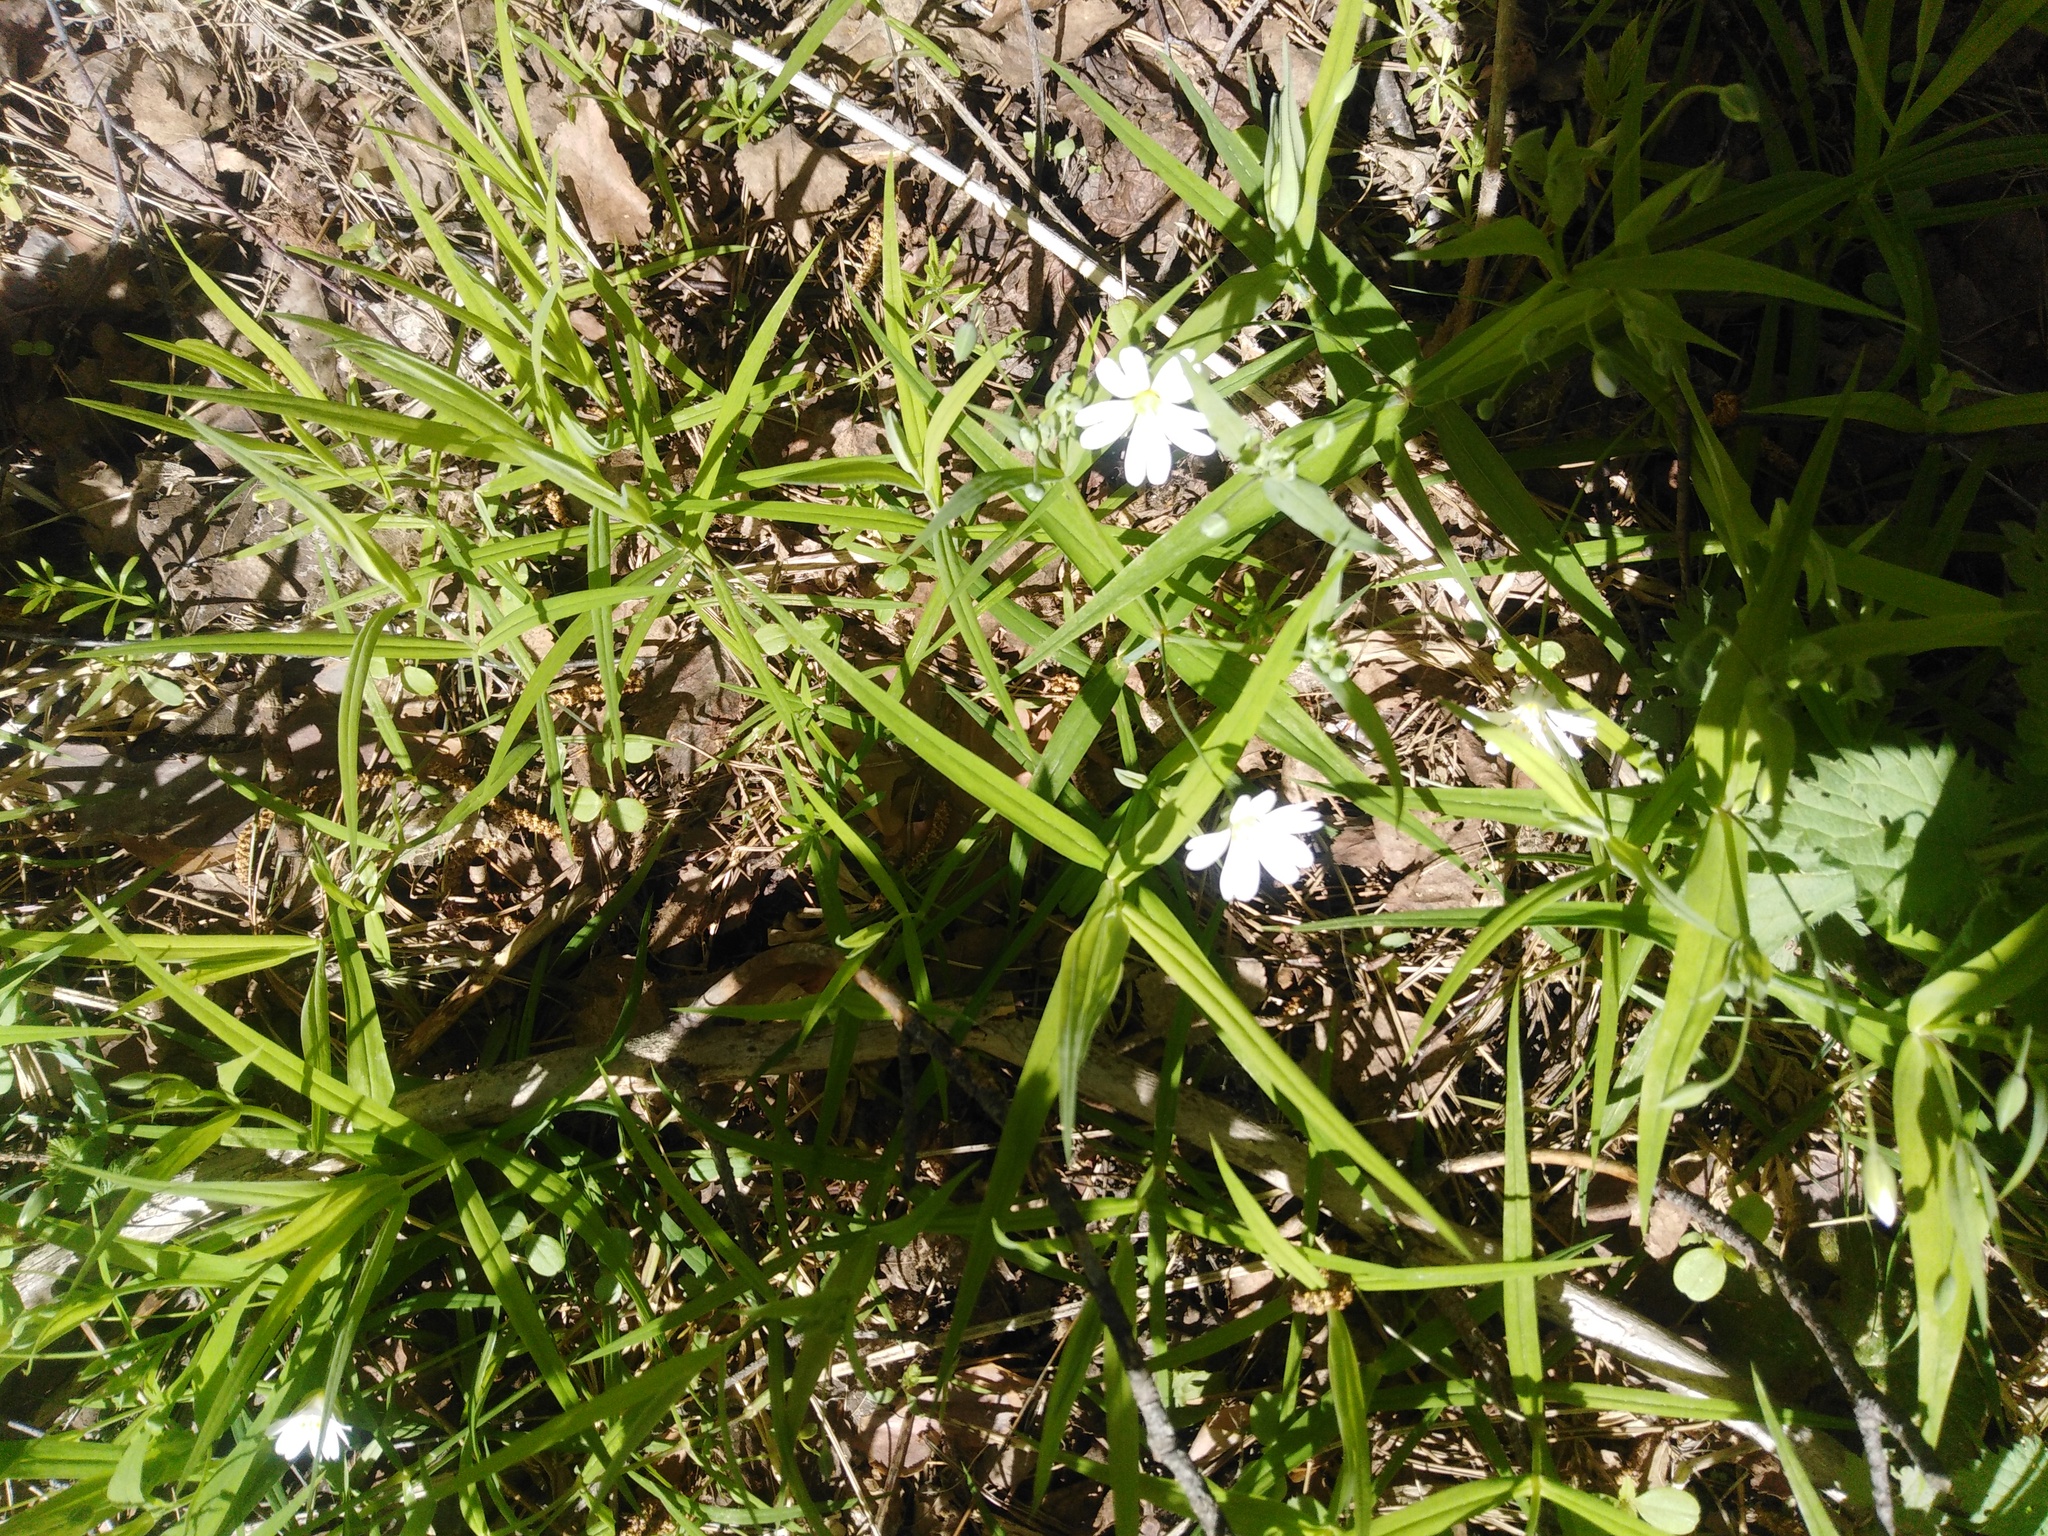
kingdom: Plantae
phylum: Tracheophyta
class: Magnoliopsida
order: Caryophyllales
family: Caryophyllaceae
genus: Rabelera
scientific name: Rabelera holostea
